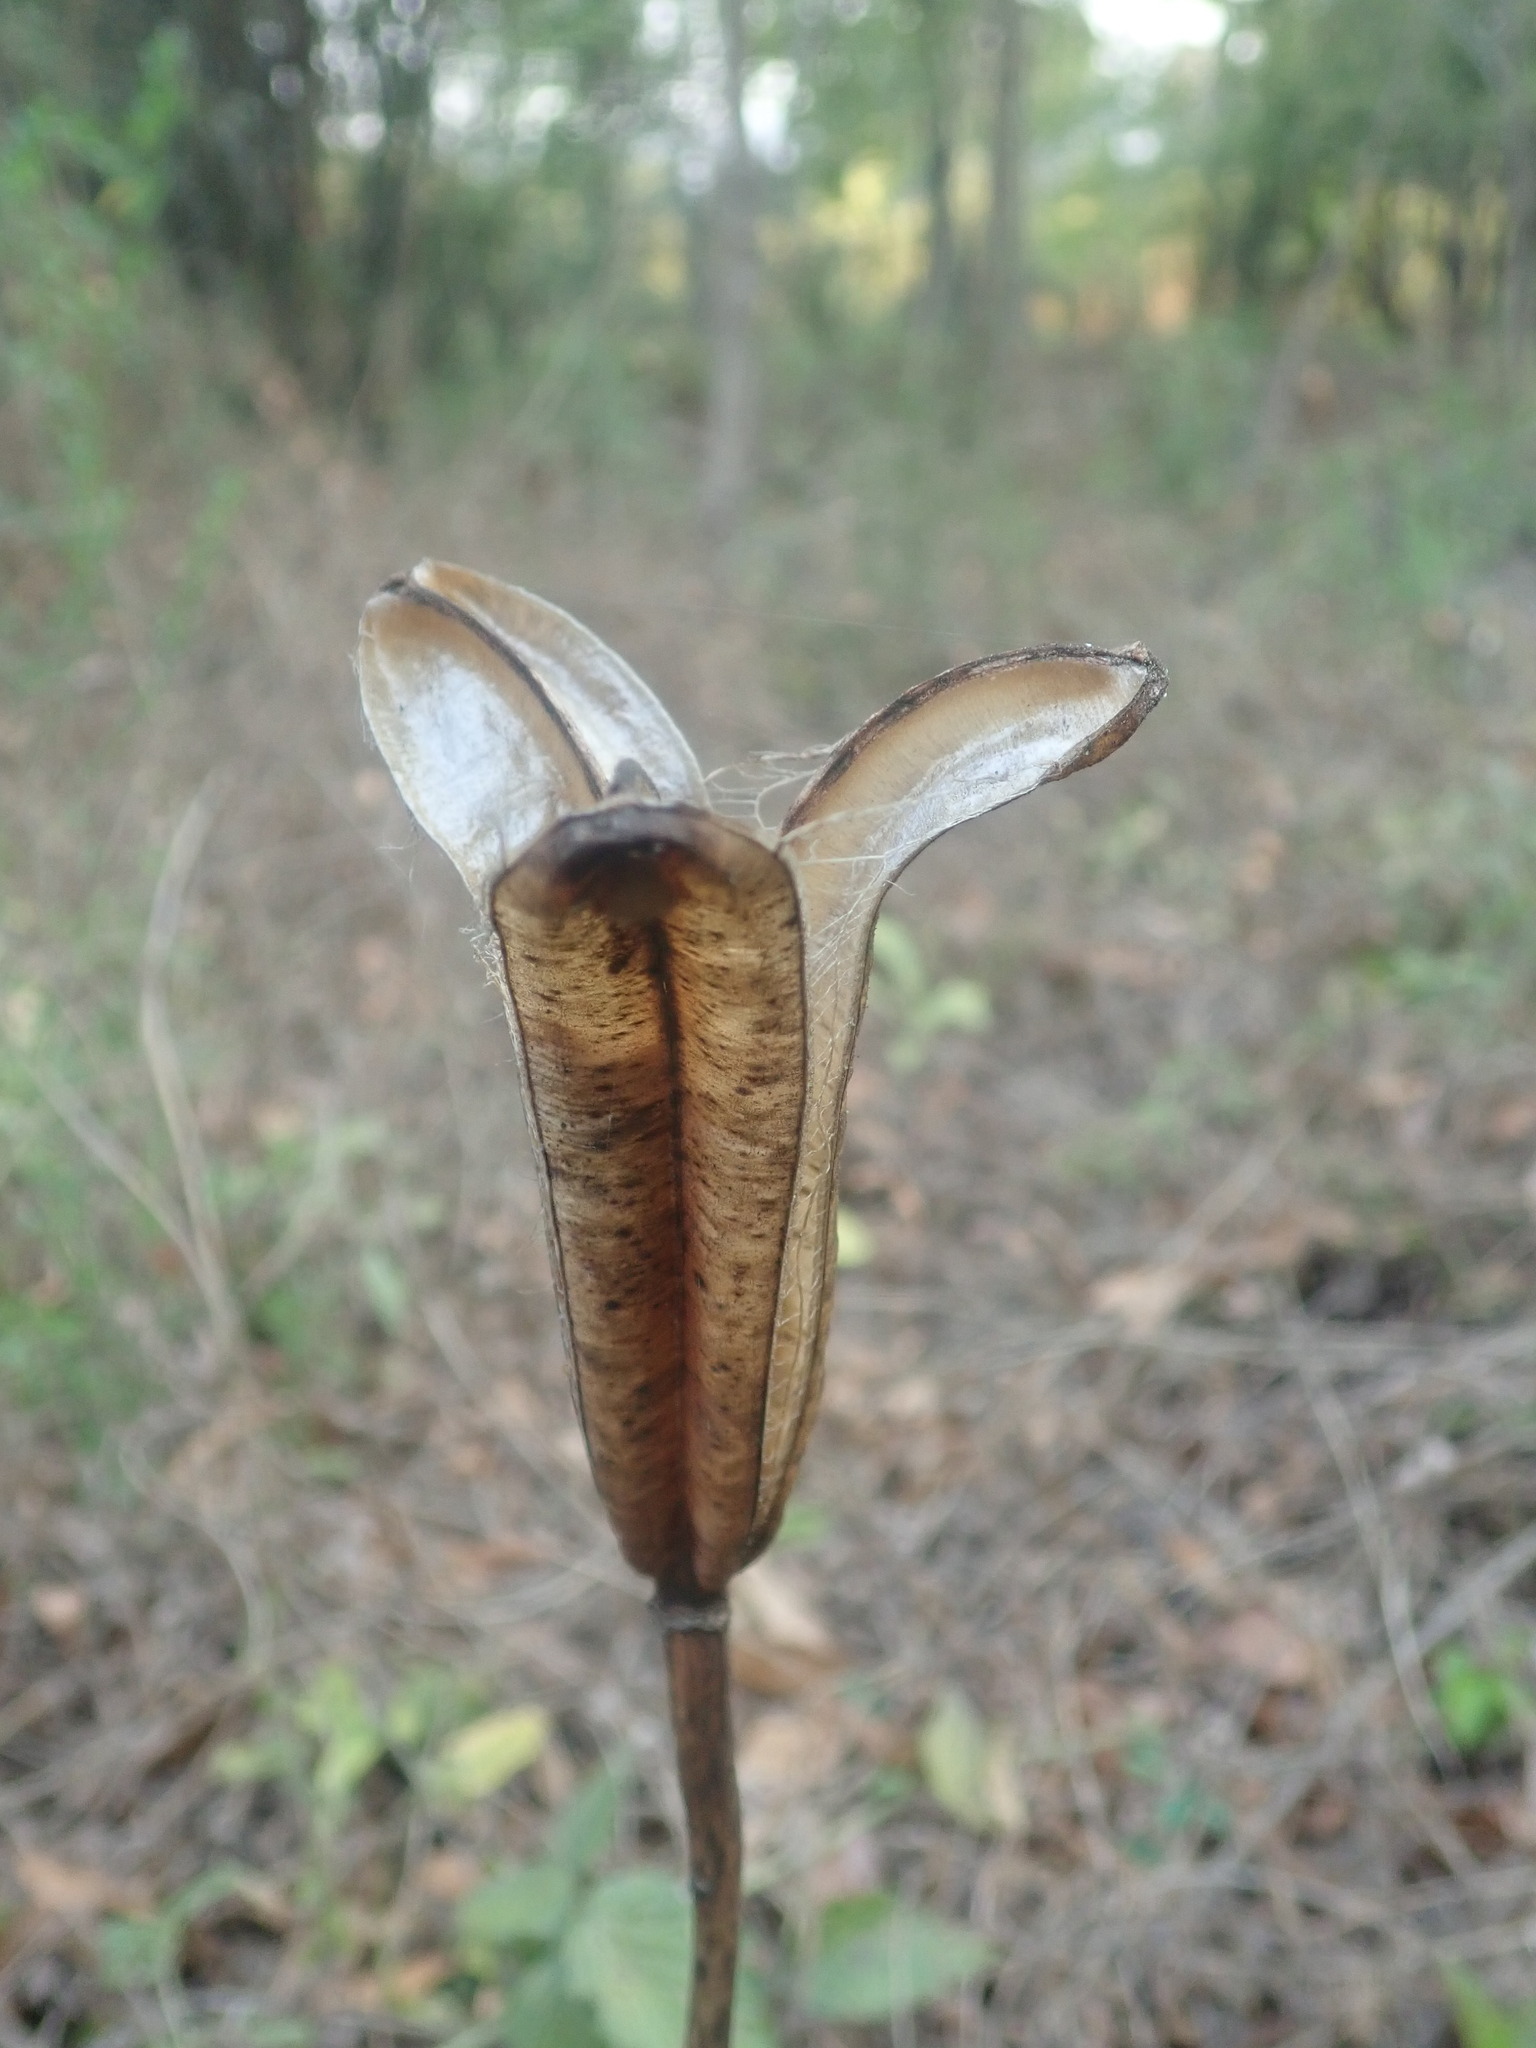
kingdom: Plantae
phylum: Tracheophyta
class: Liliopsida
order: Liliales
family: Liliaceae
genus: Lilium
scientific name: Lilium formosanum
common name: Formosa lily
